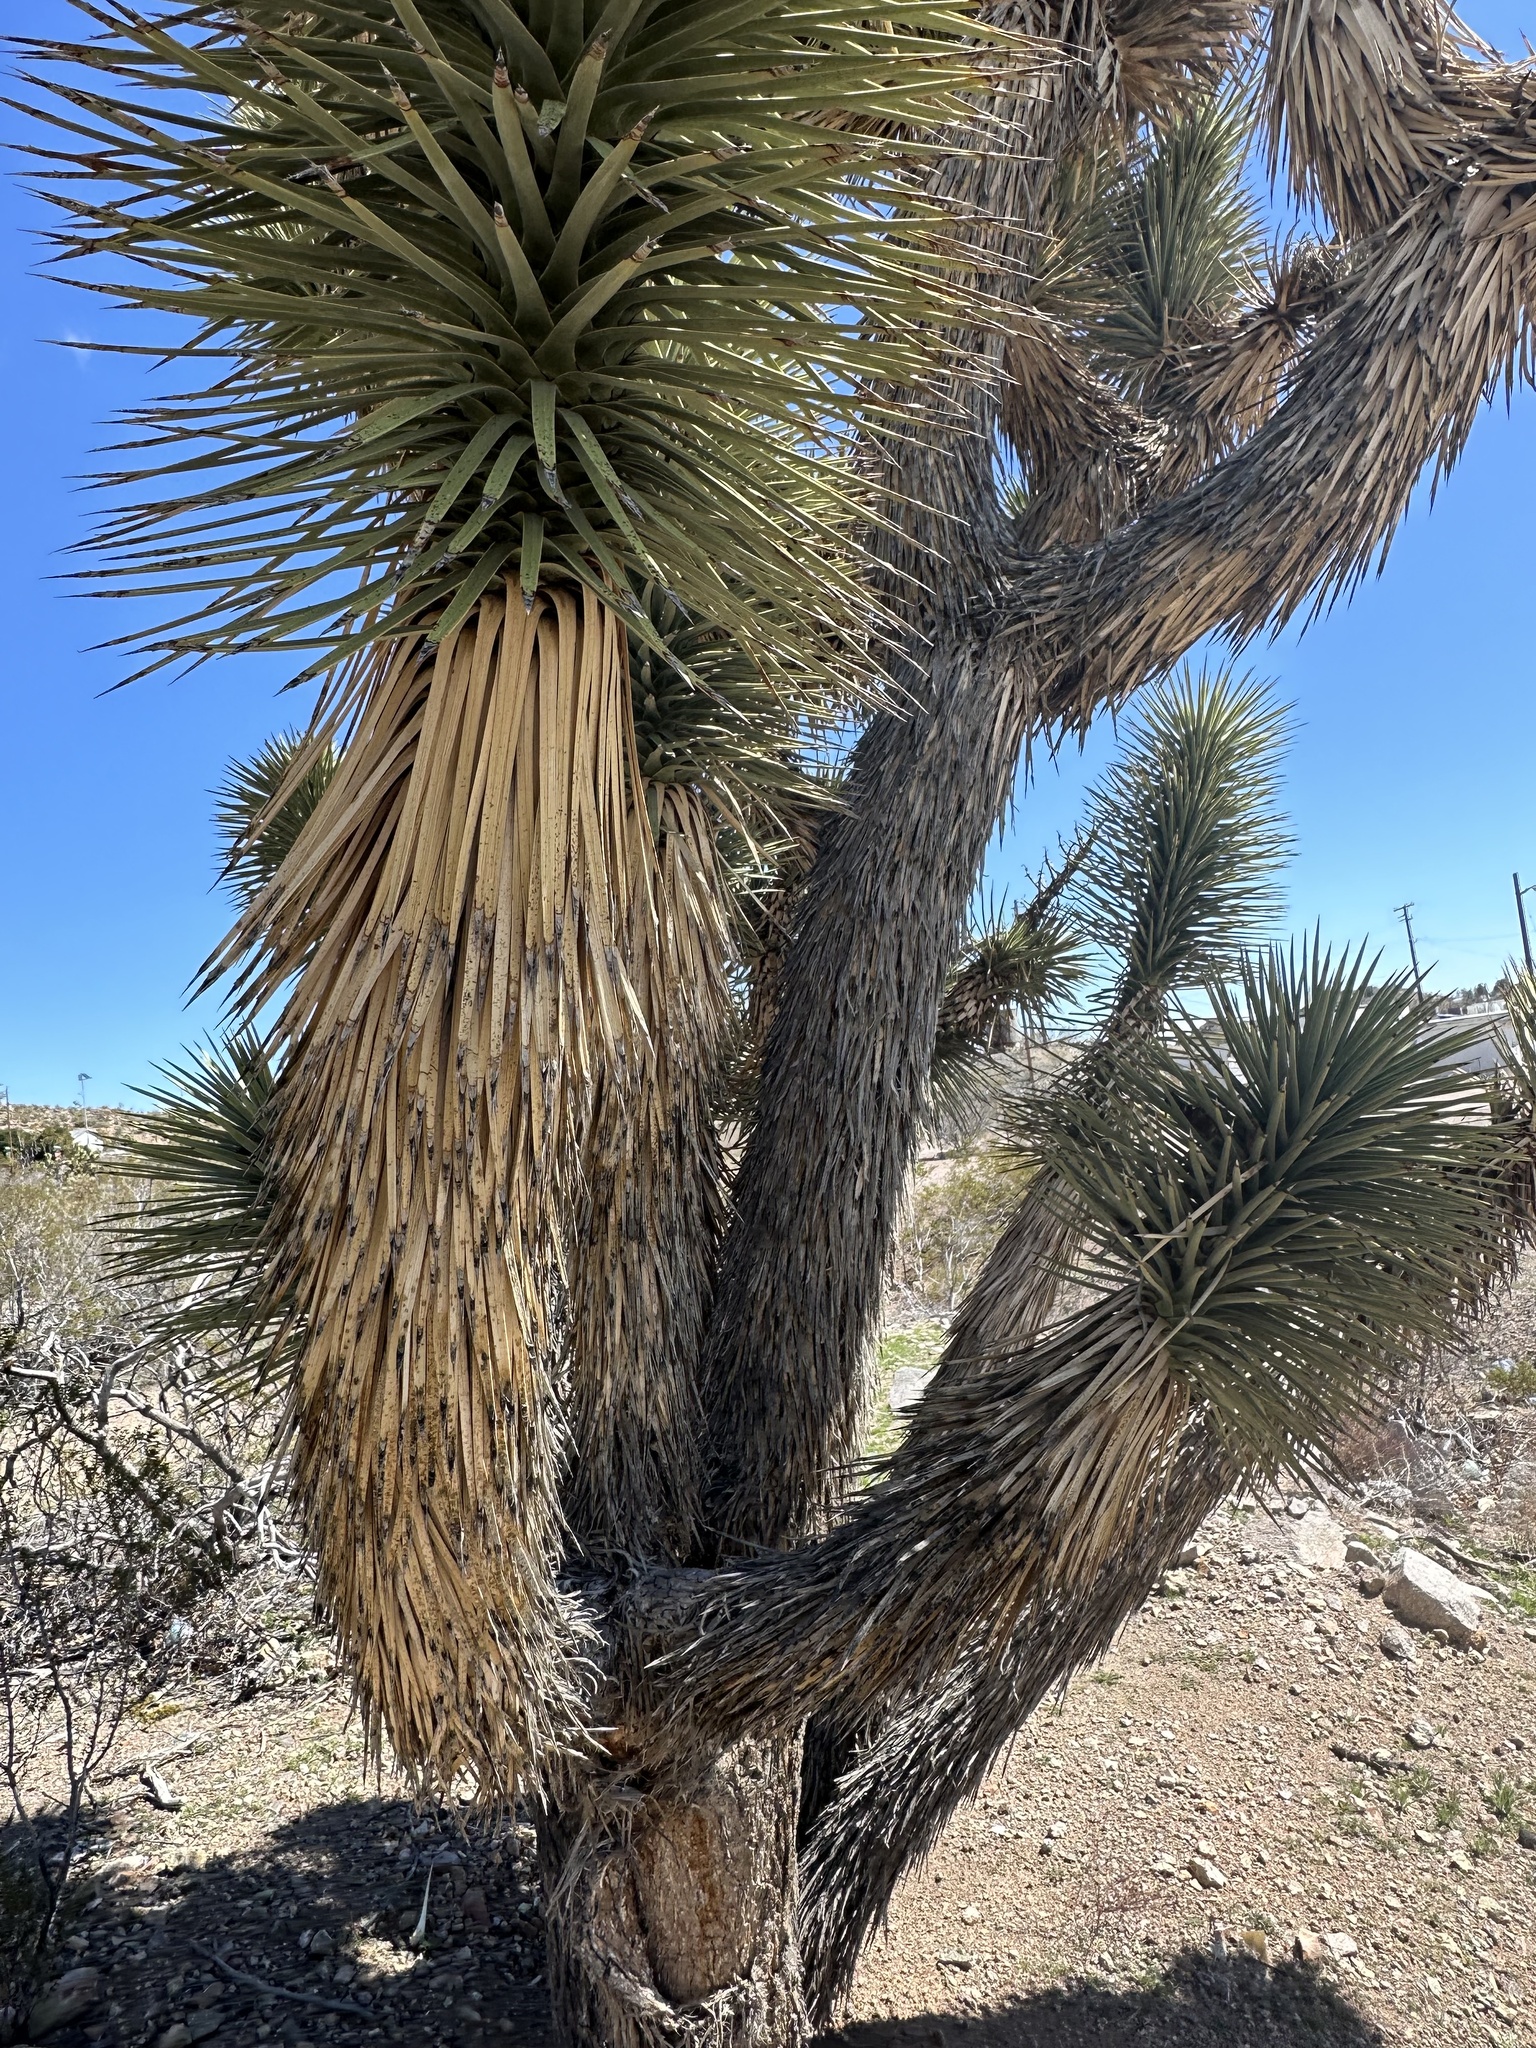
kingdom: Plantae
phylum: Tracheophyta
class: Liliopsida
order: Asparagales
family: Asparagaceae
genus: Yucca
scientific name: Yucca brevifolia
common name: Joshua tree
